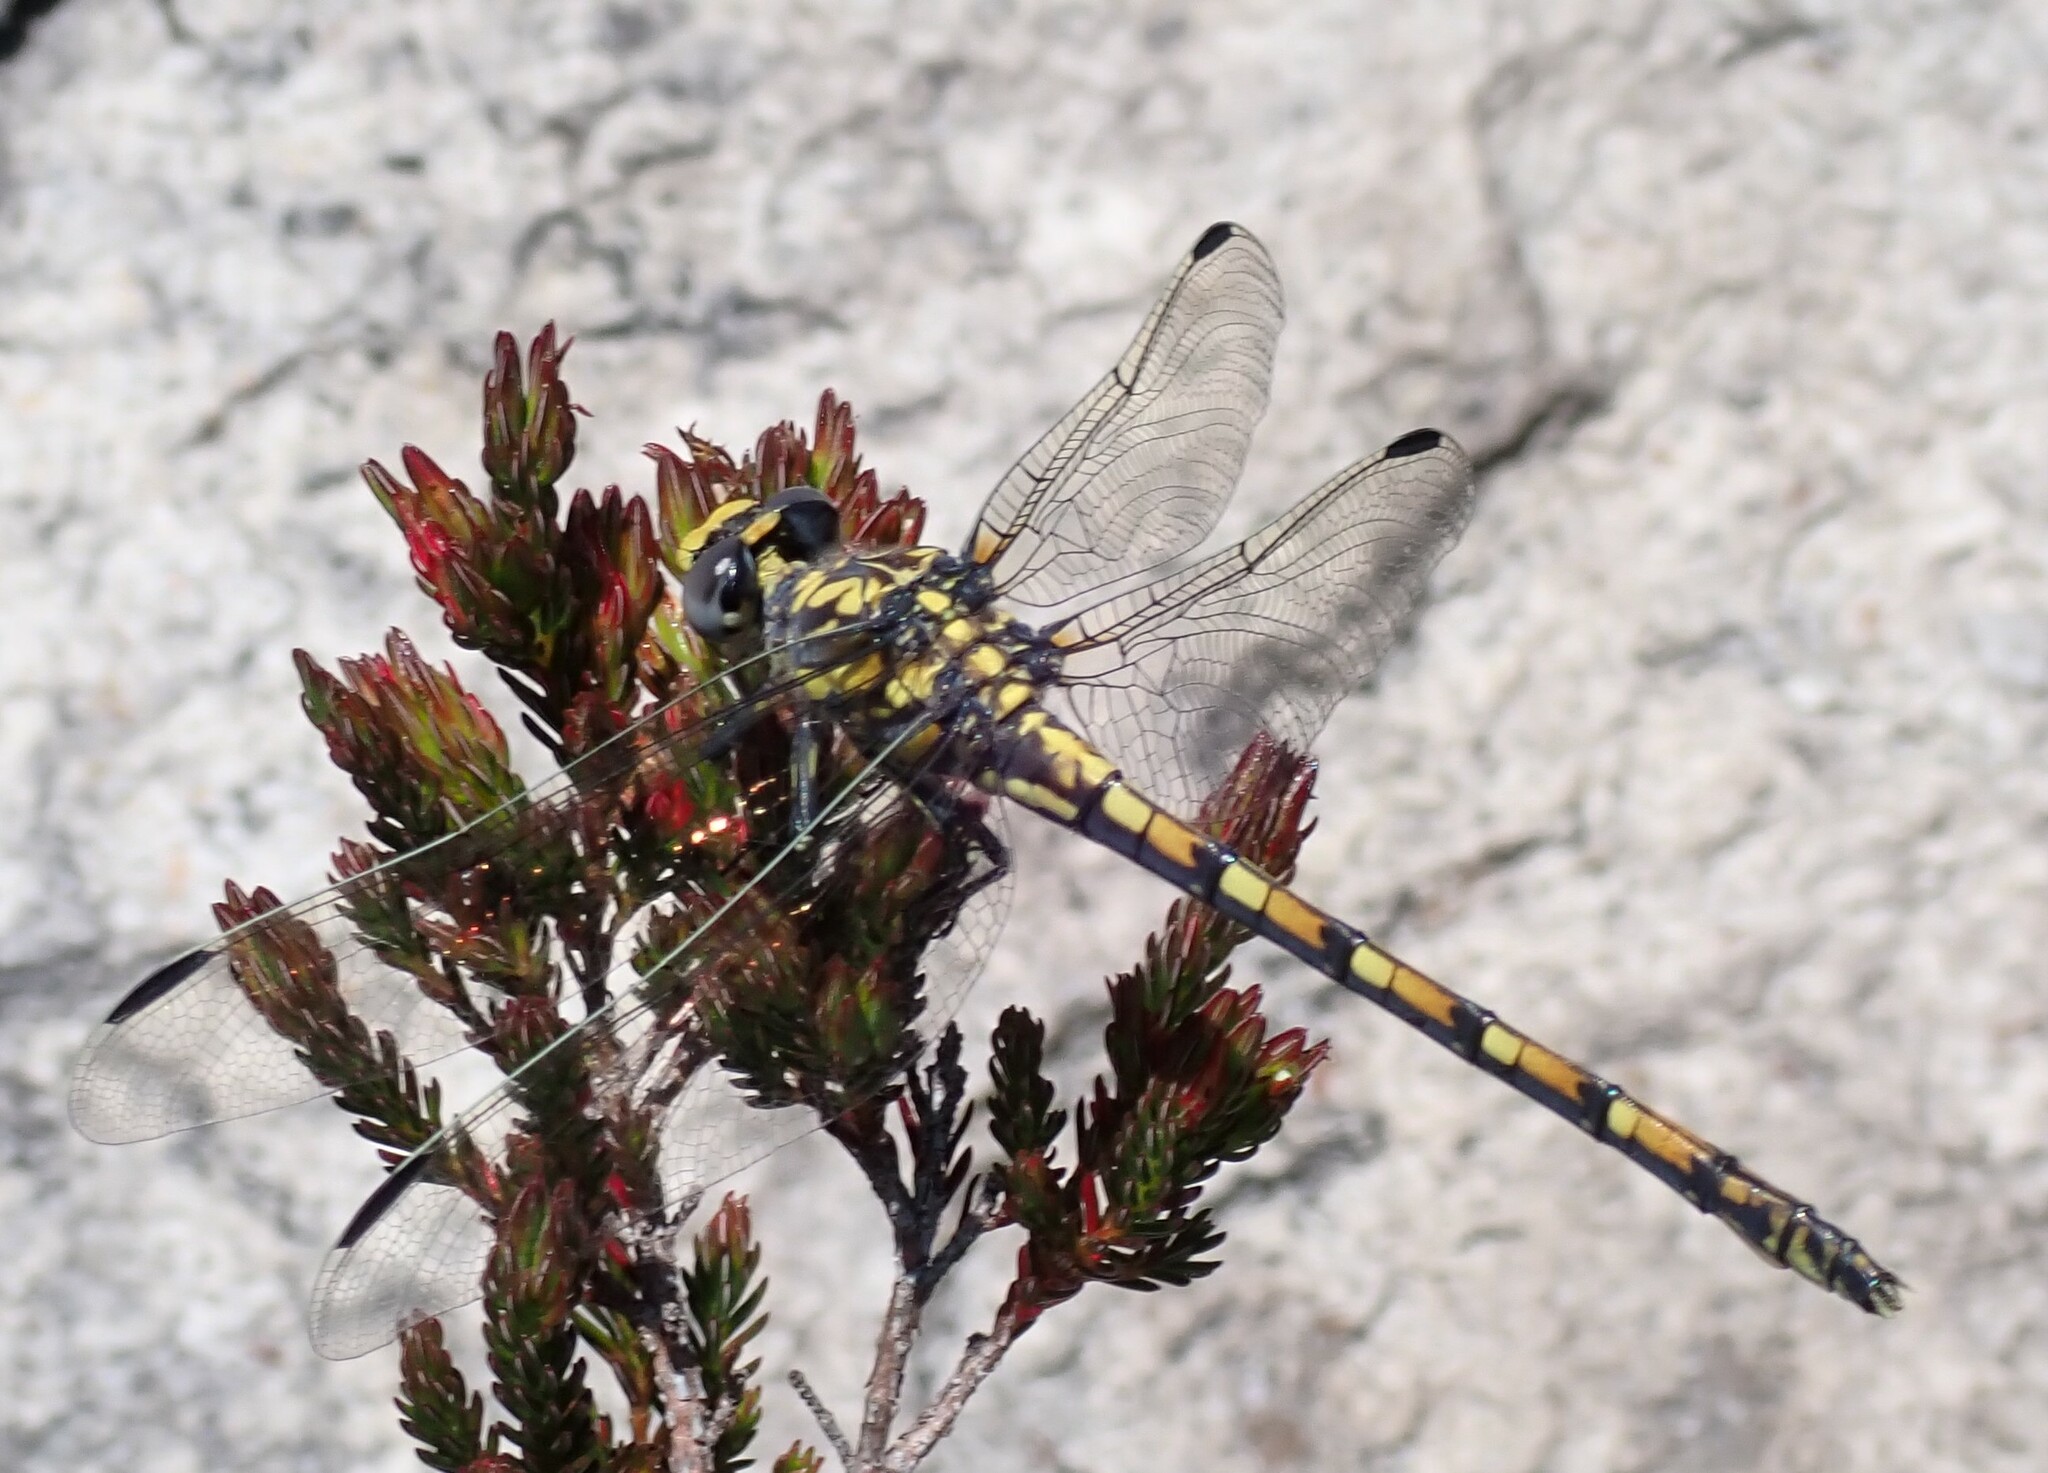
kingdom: Animalia
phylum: Arthropoda
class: Insecta
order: Odonata
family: Gomphidae
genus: Paragomphus
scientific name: Paragomphus cognatus
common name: Boulder hooktail
